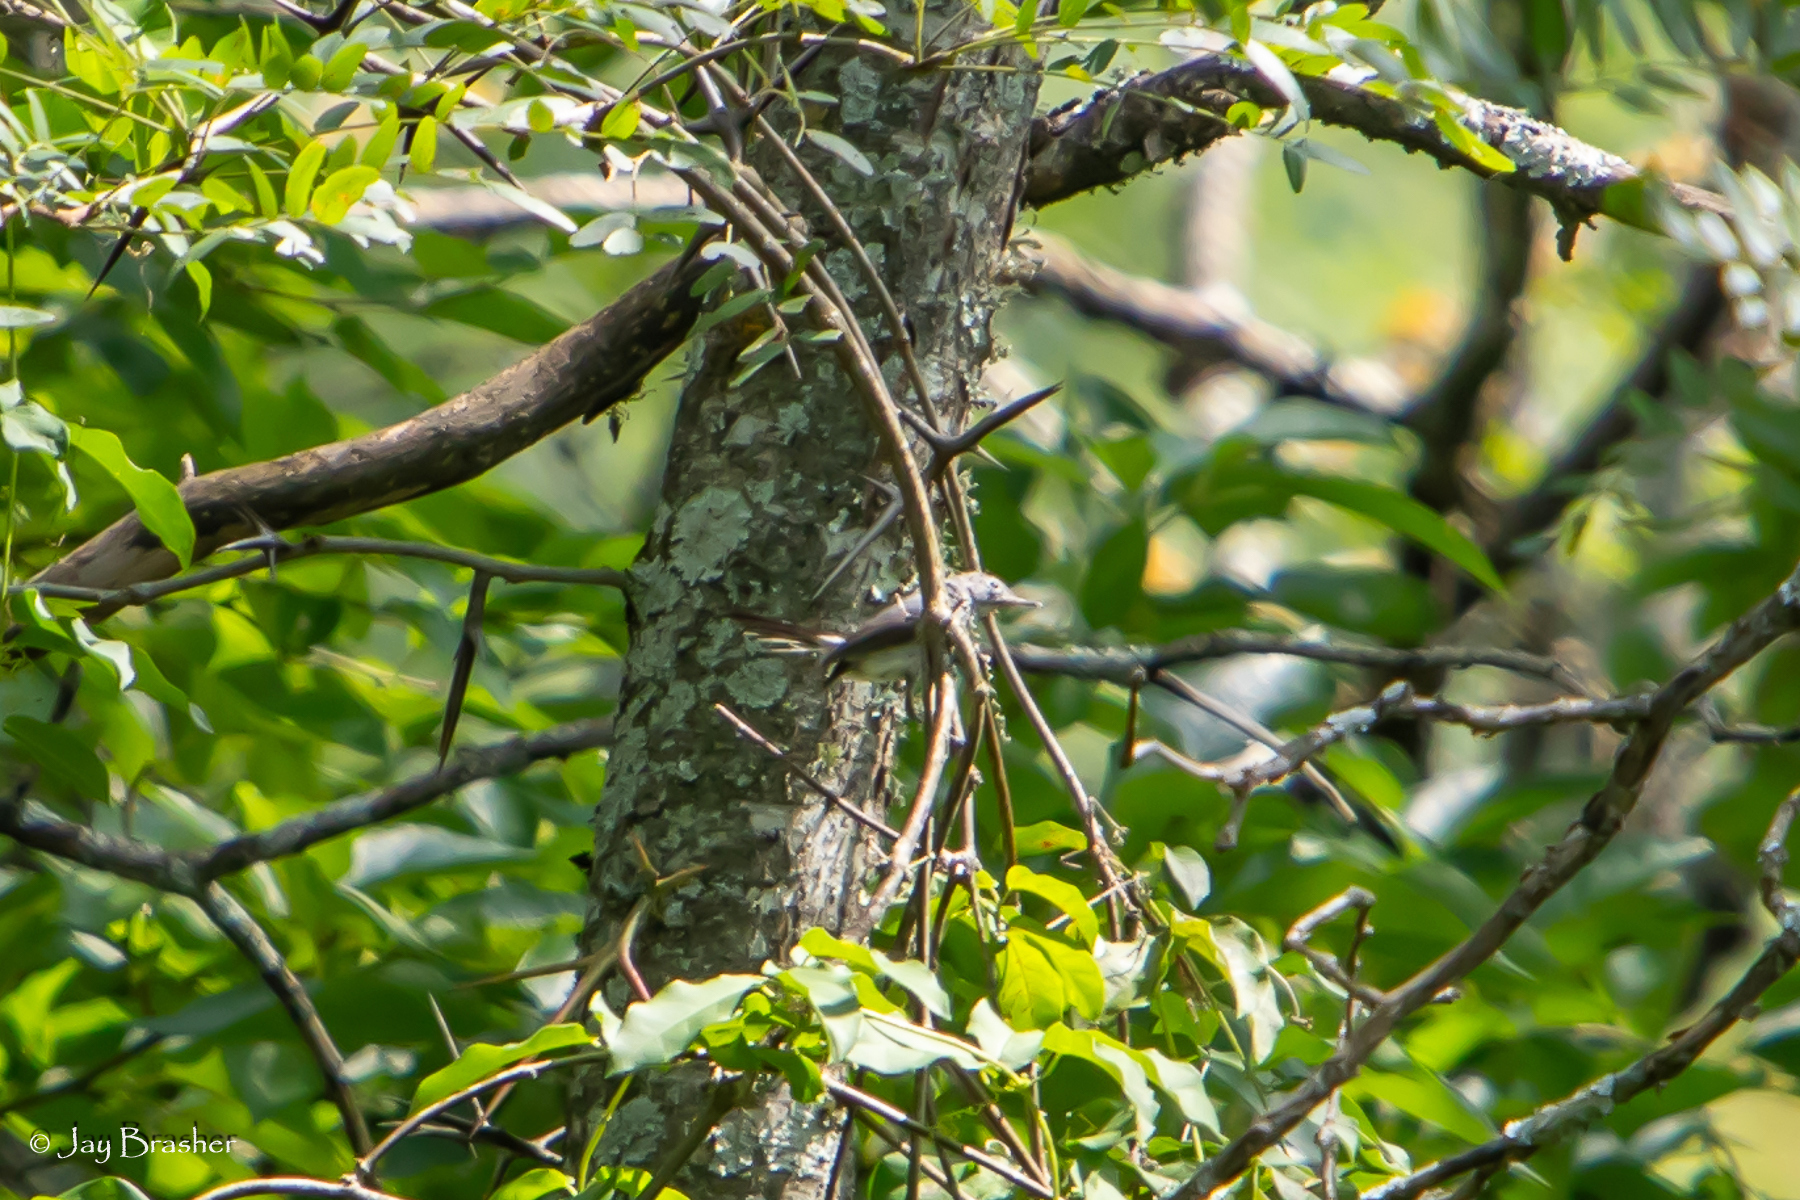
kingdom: Animalia
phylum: Chordata
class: Aves
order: Passeriformes
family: Polioptilidae
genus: Polioptila
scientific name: Polioptila caerulea
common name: Blue-gray gnatcatcher
